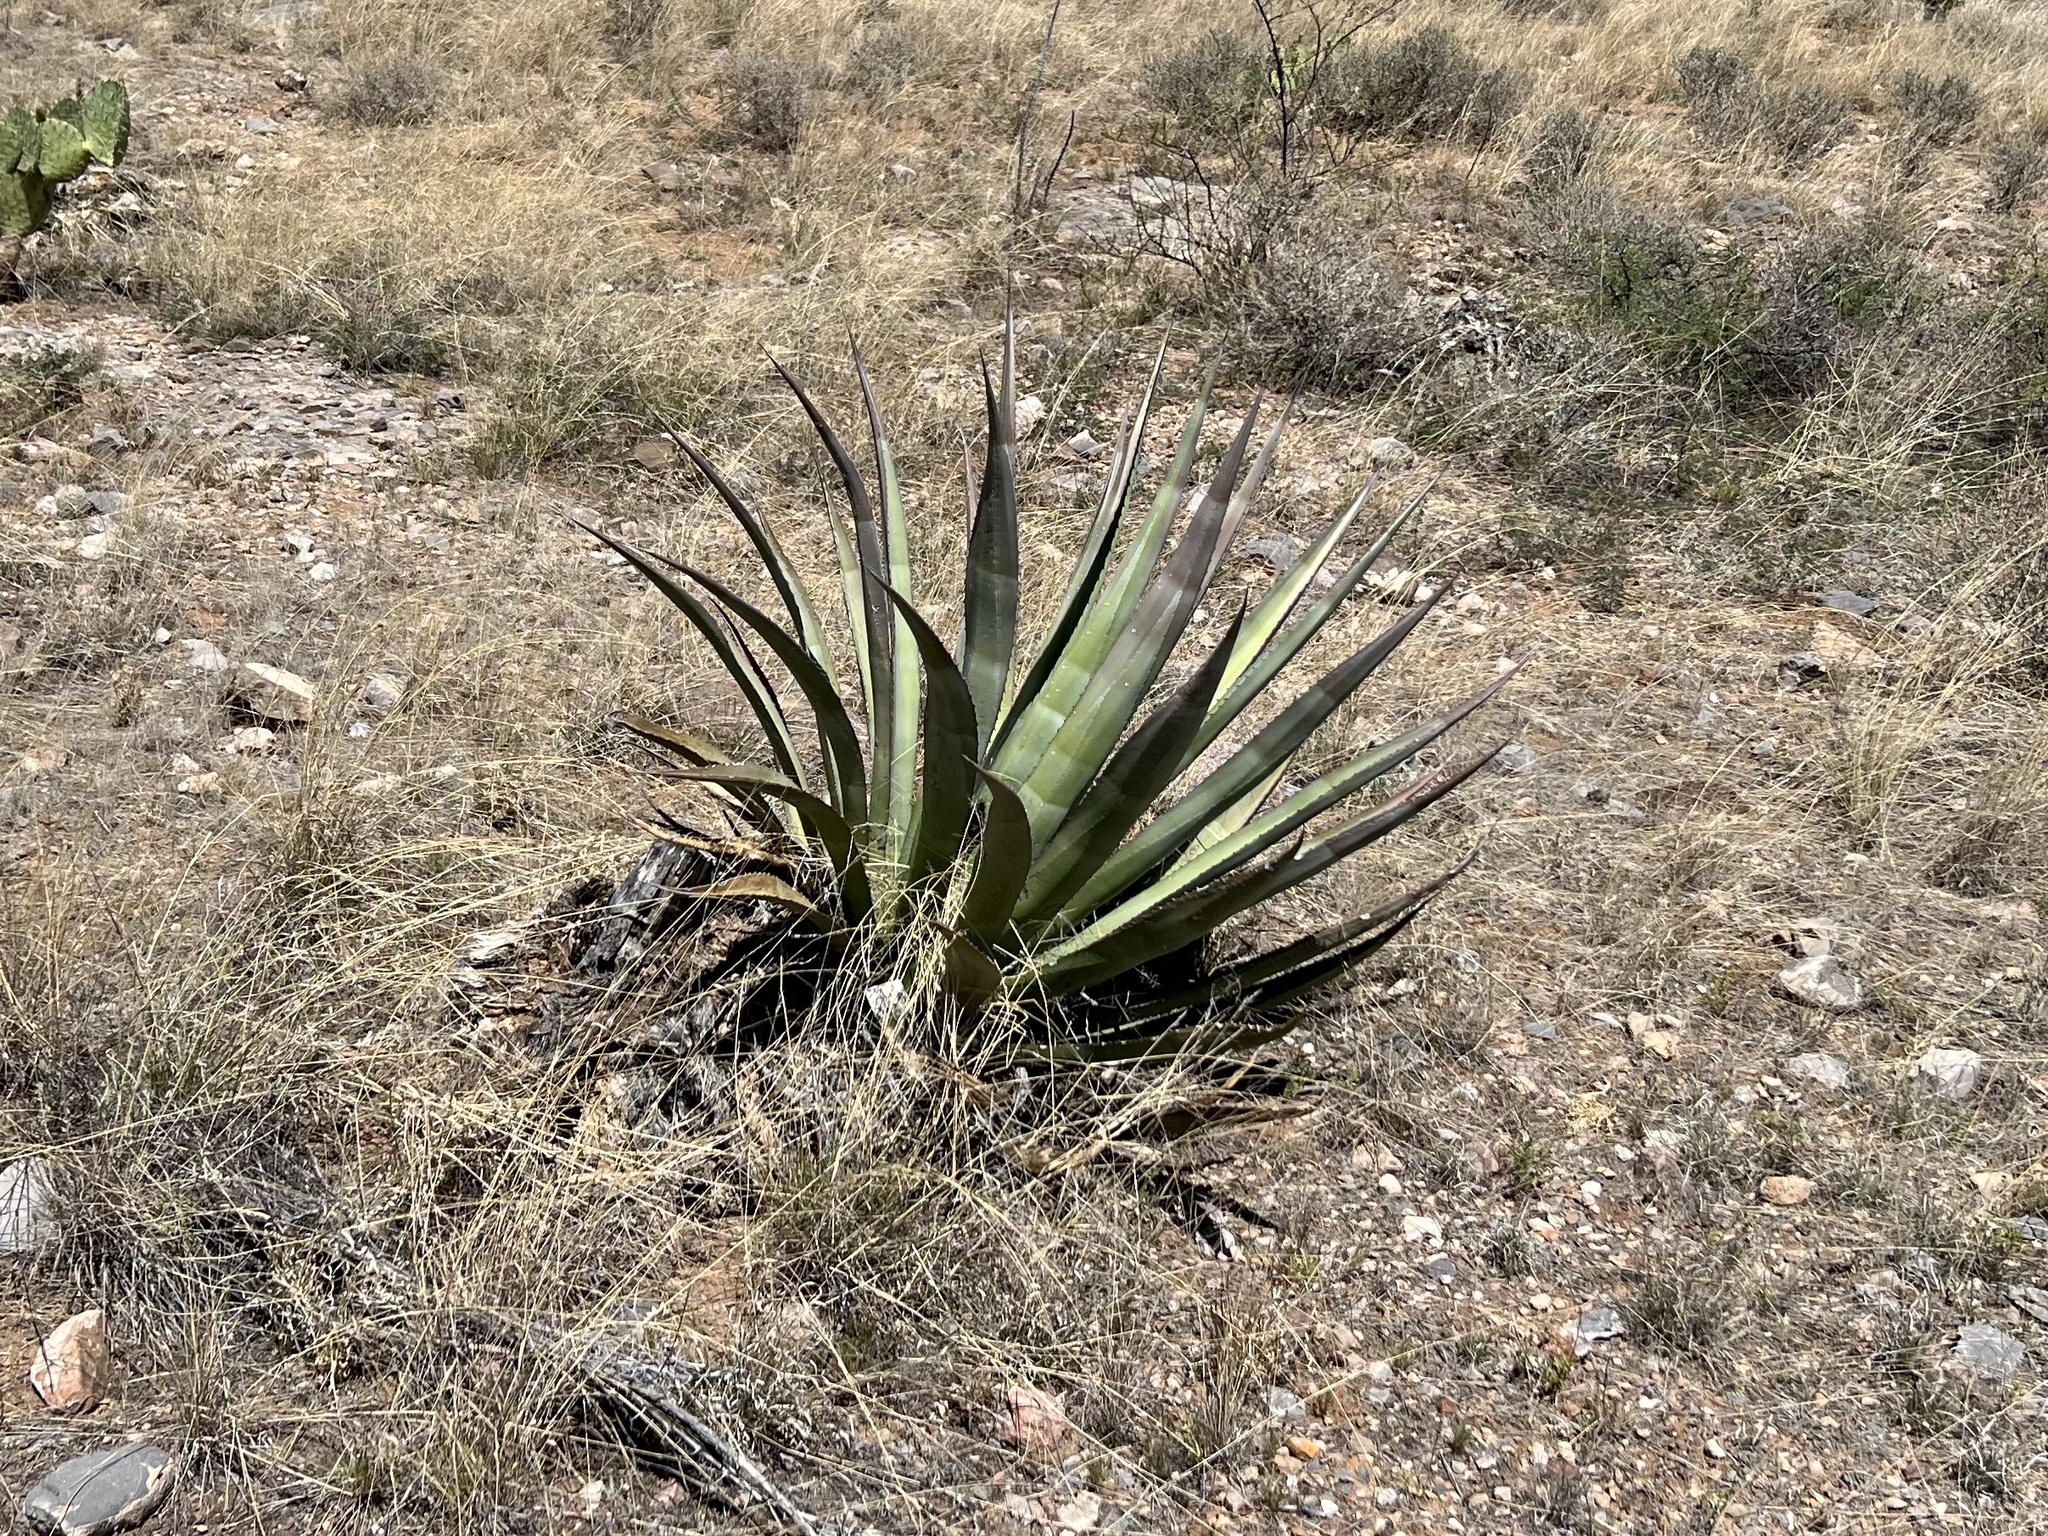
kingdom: Plantae
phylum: Tracheophyta
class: Liliopsida
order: Asparagales
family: Asparagaceae
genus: Agave
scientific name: Agave palmeri
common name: Palmer agave
